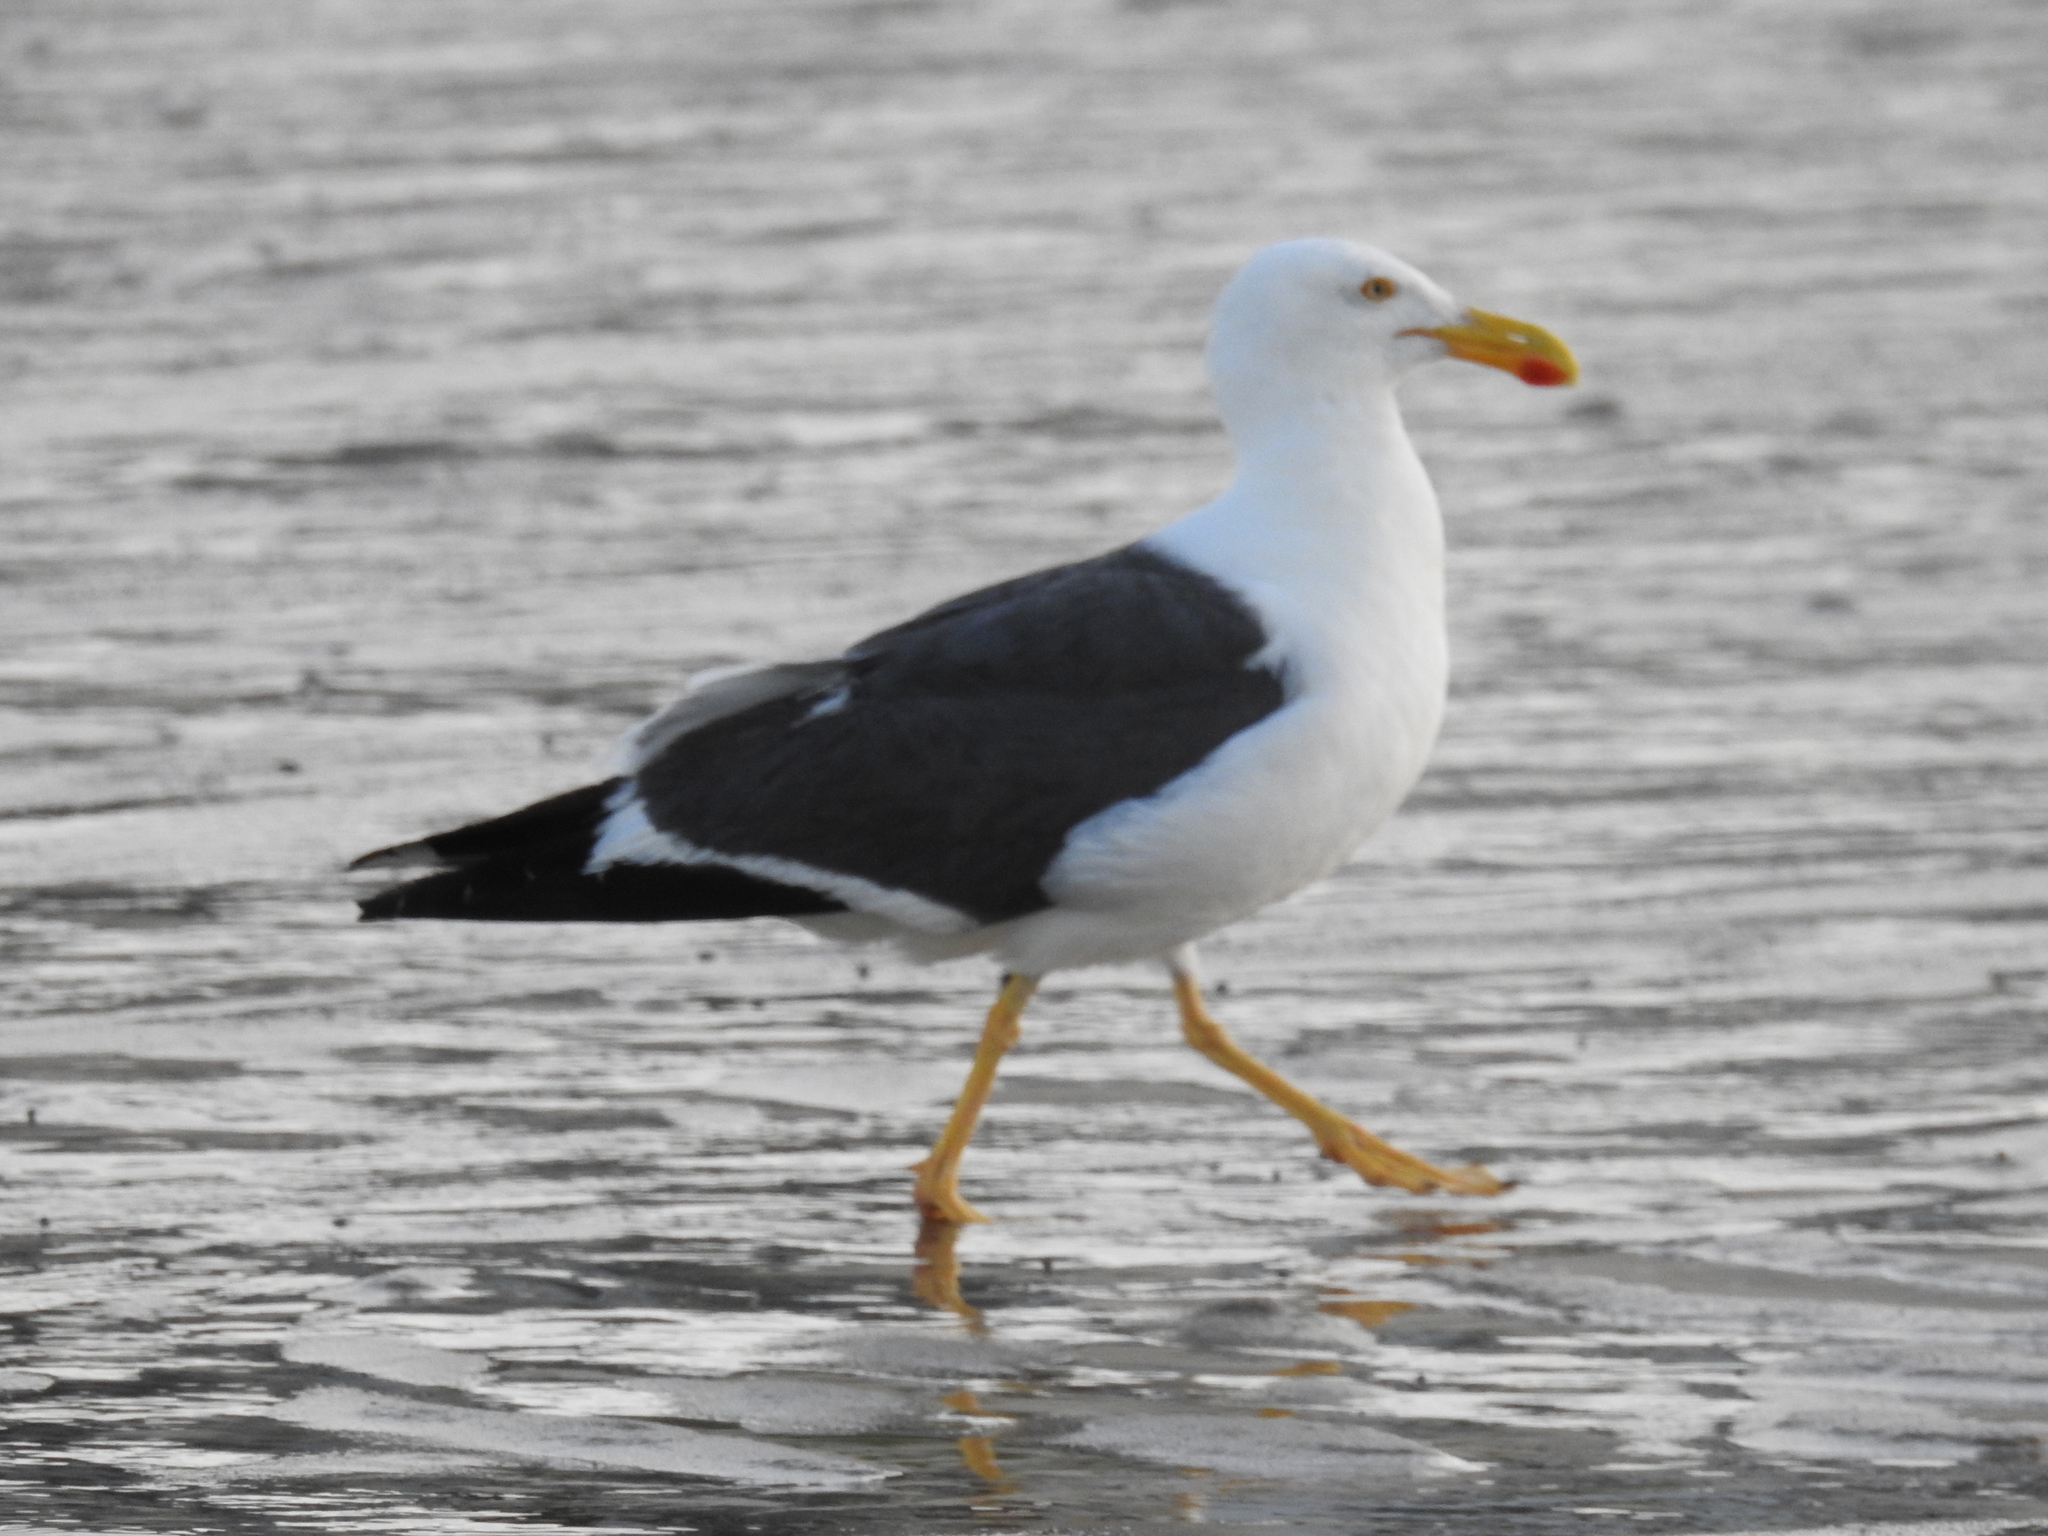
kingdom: Animalia
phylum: Chordata
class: Aves
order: Charadriiformes
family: Laridae
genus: Larus
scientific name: Larus livens
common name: Yellow-footed gull
